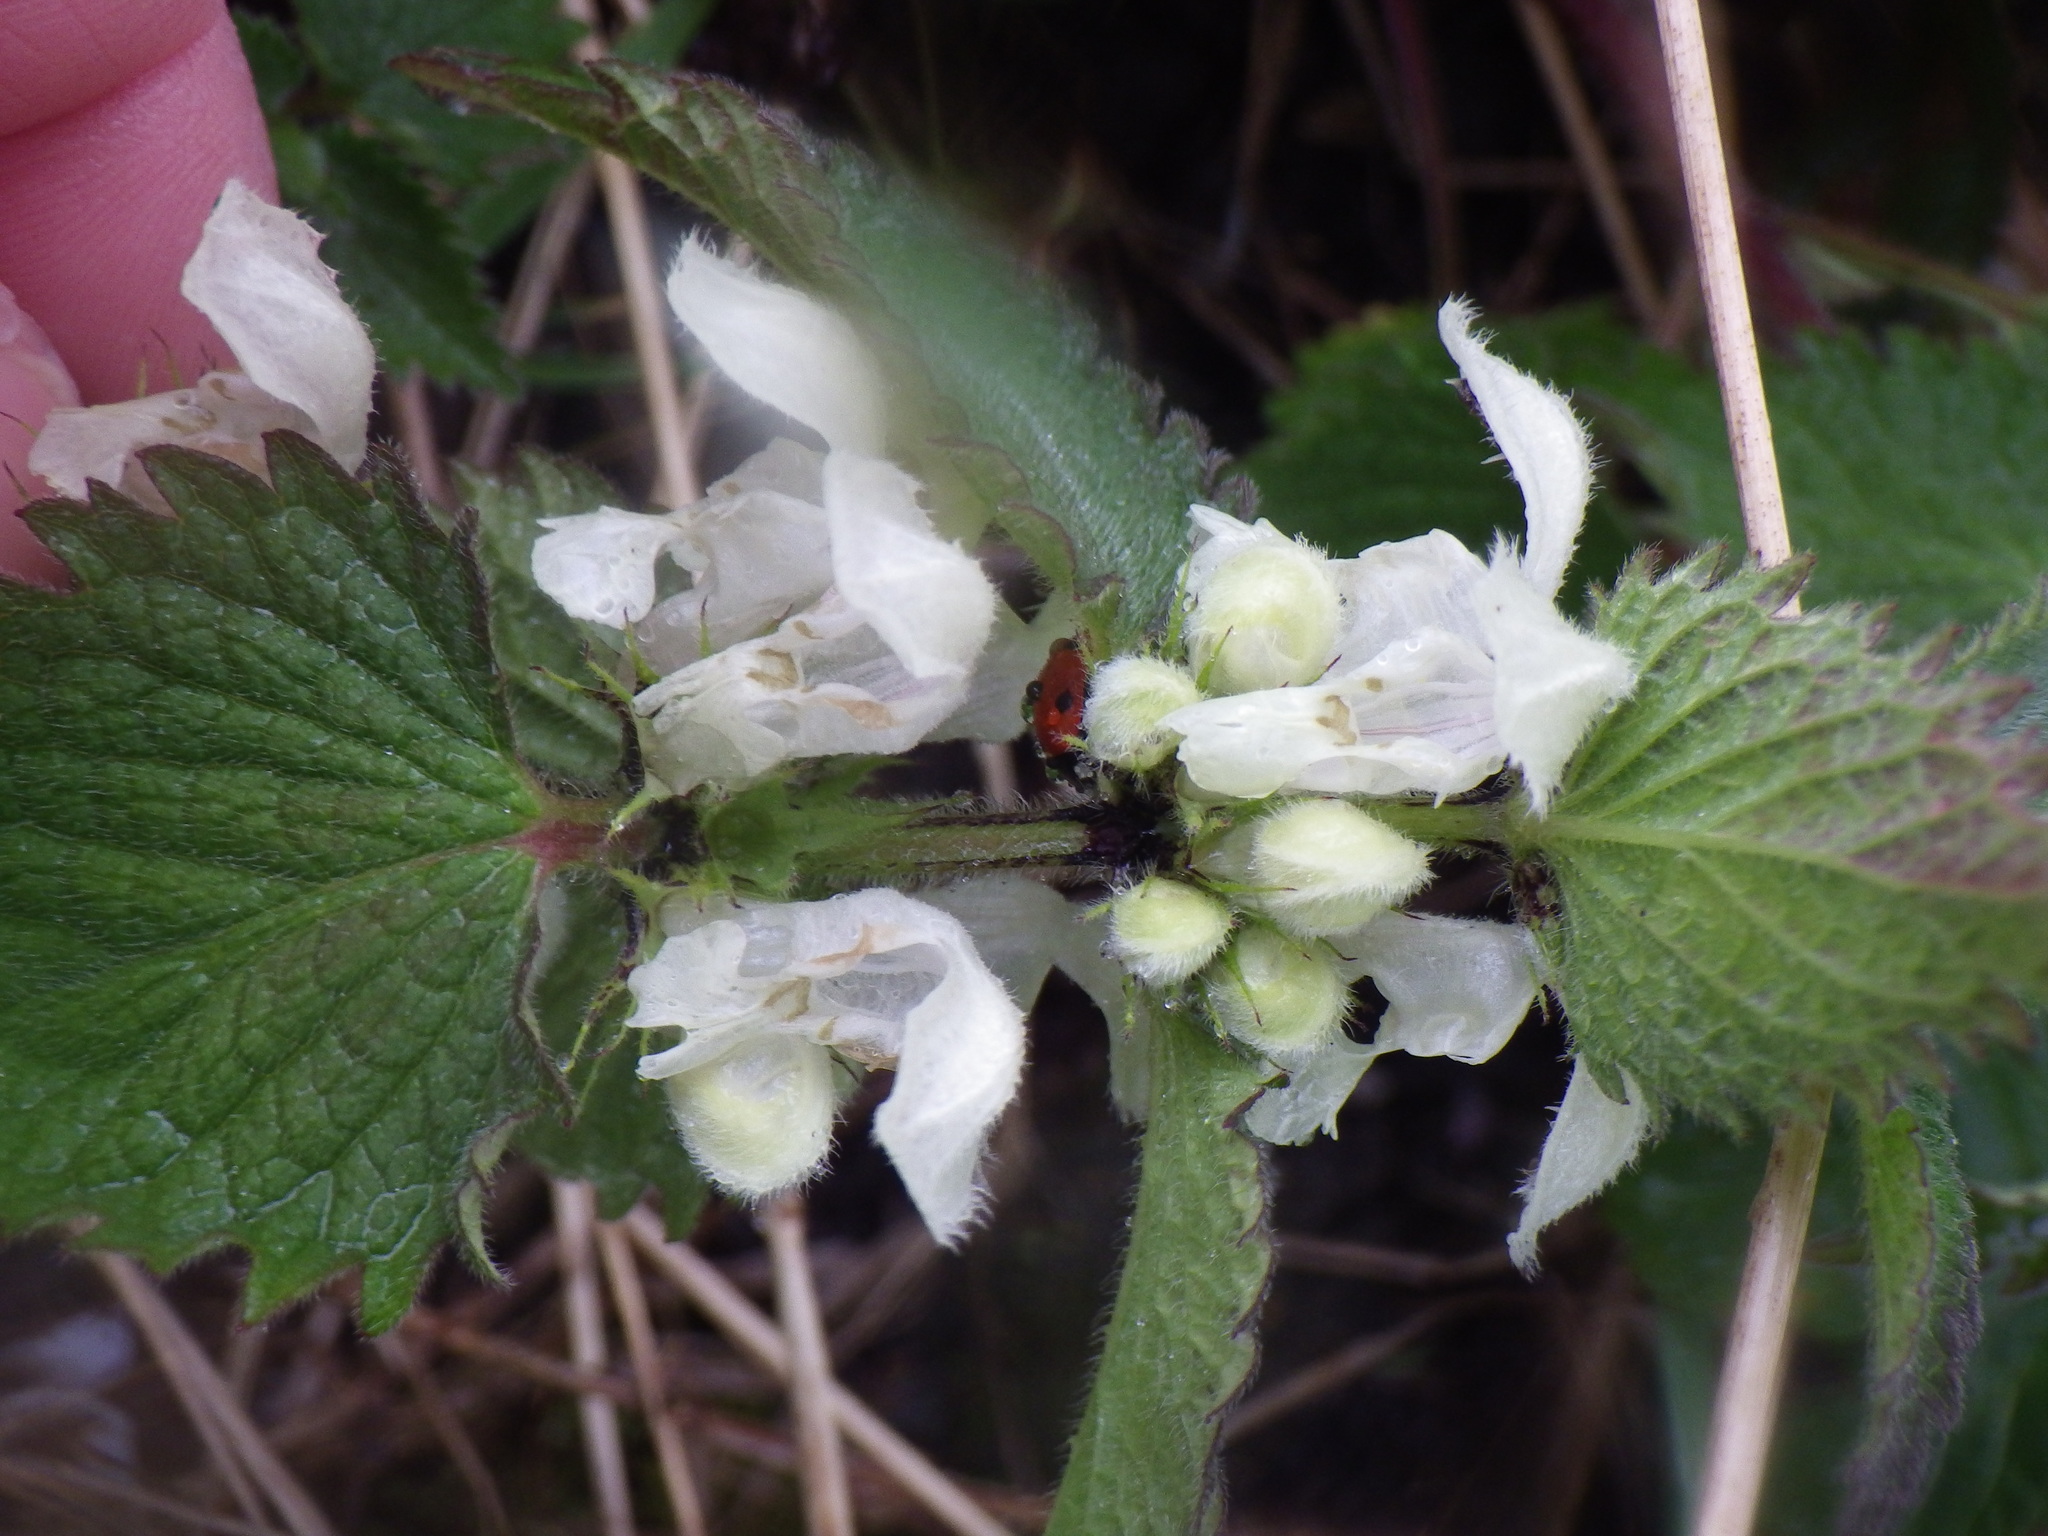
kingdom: Plantae
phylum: Tracheophyta
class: Magnoliopsida
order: Lamiales
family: Lamiaceae
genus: Lamium
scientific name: Lamium album
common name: White dead-nettle
